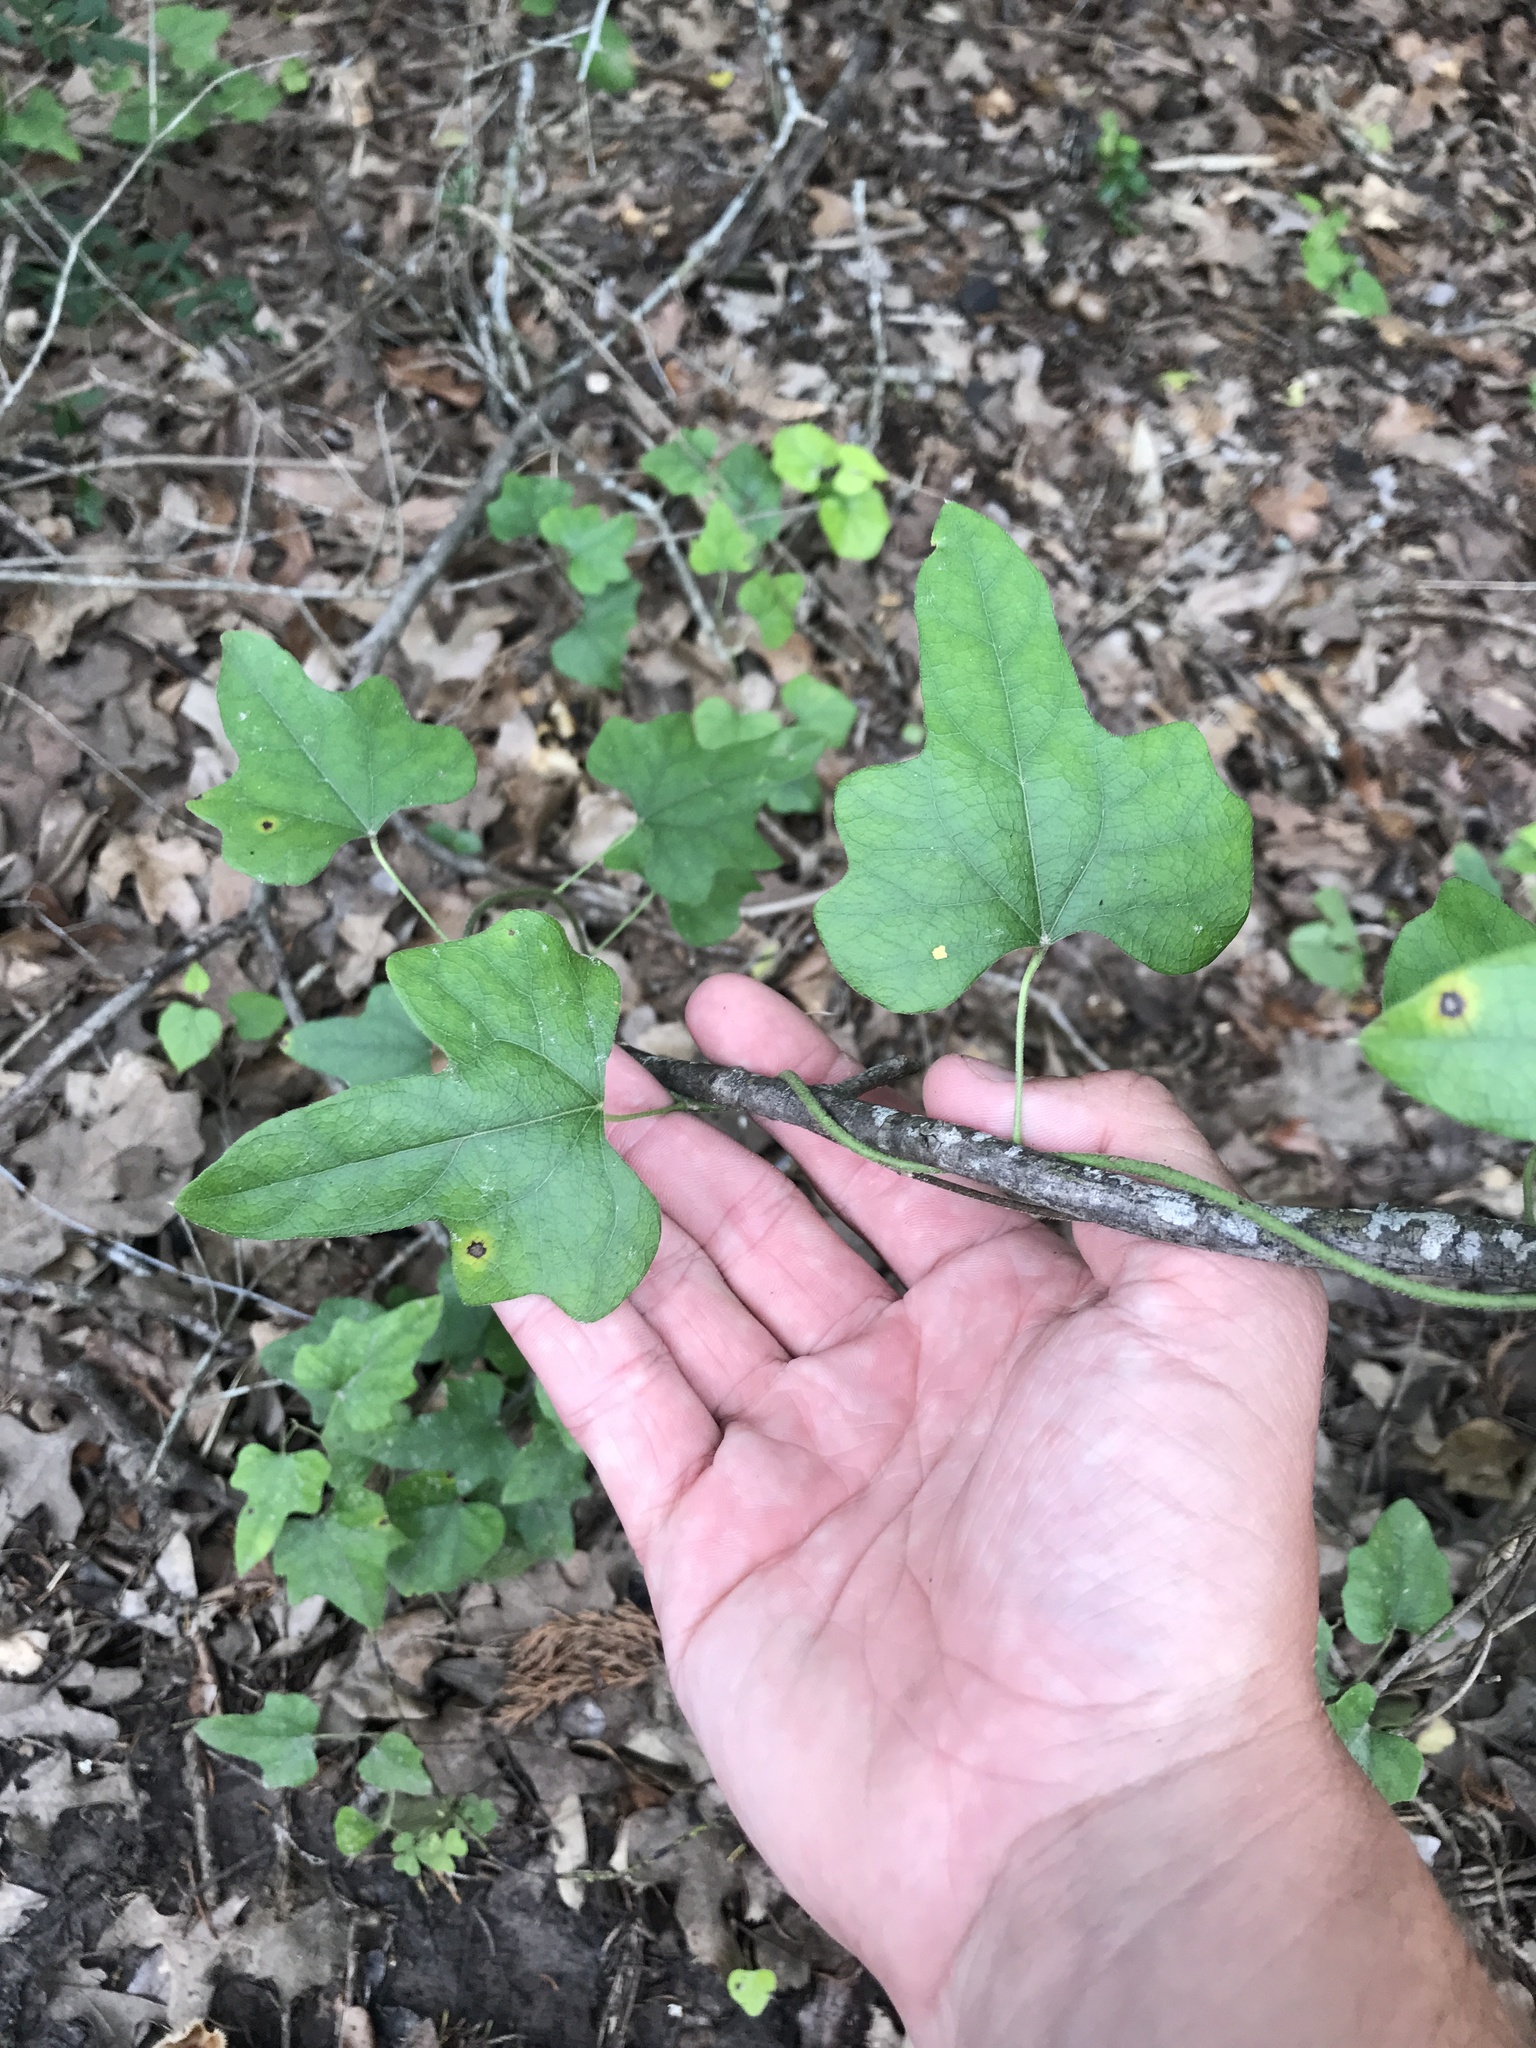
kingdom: Plantae
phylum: Tracheophyta
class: Magnoliopsida
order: Ranunculales
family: Menispermaceae
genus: Cocculus
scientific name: Cocculus carolinus
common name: Carolina moonseed
